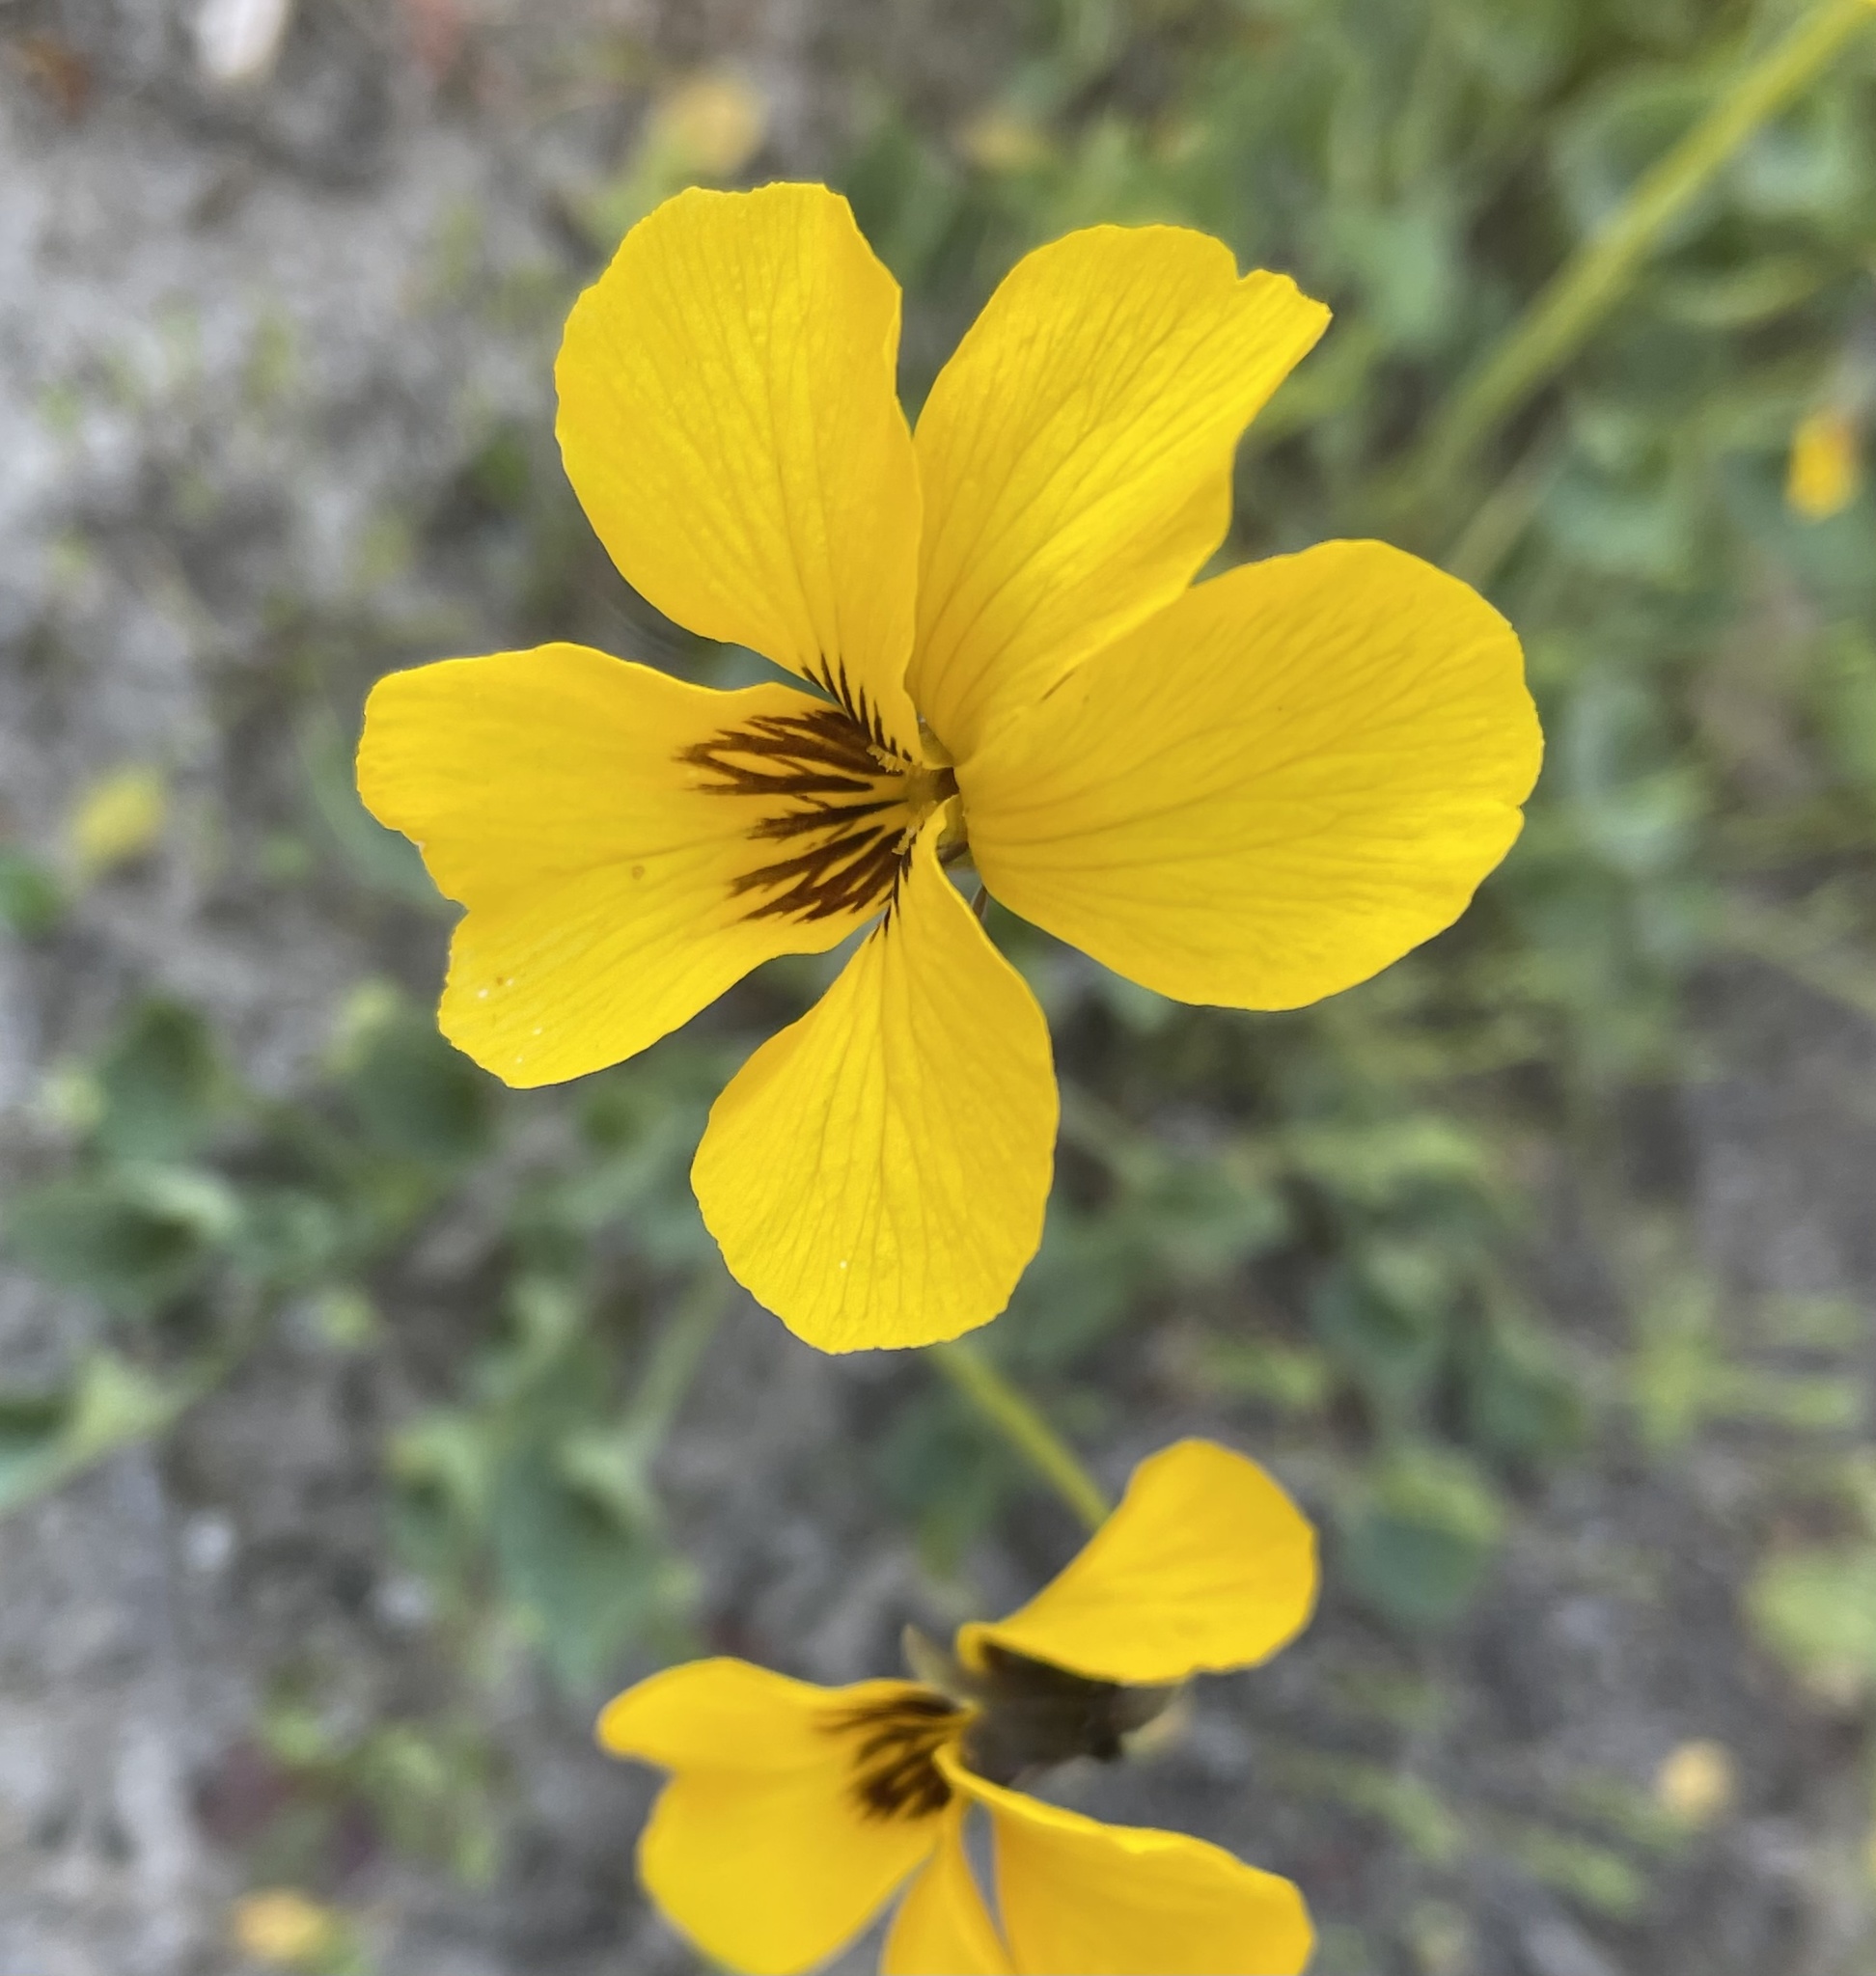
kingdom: Plantae
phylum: Tracheophyta
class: Magnoliopsida
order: Malpighiales
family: Violaceae
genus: Viola
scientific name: Viola pedunculata
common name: California golden violet
